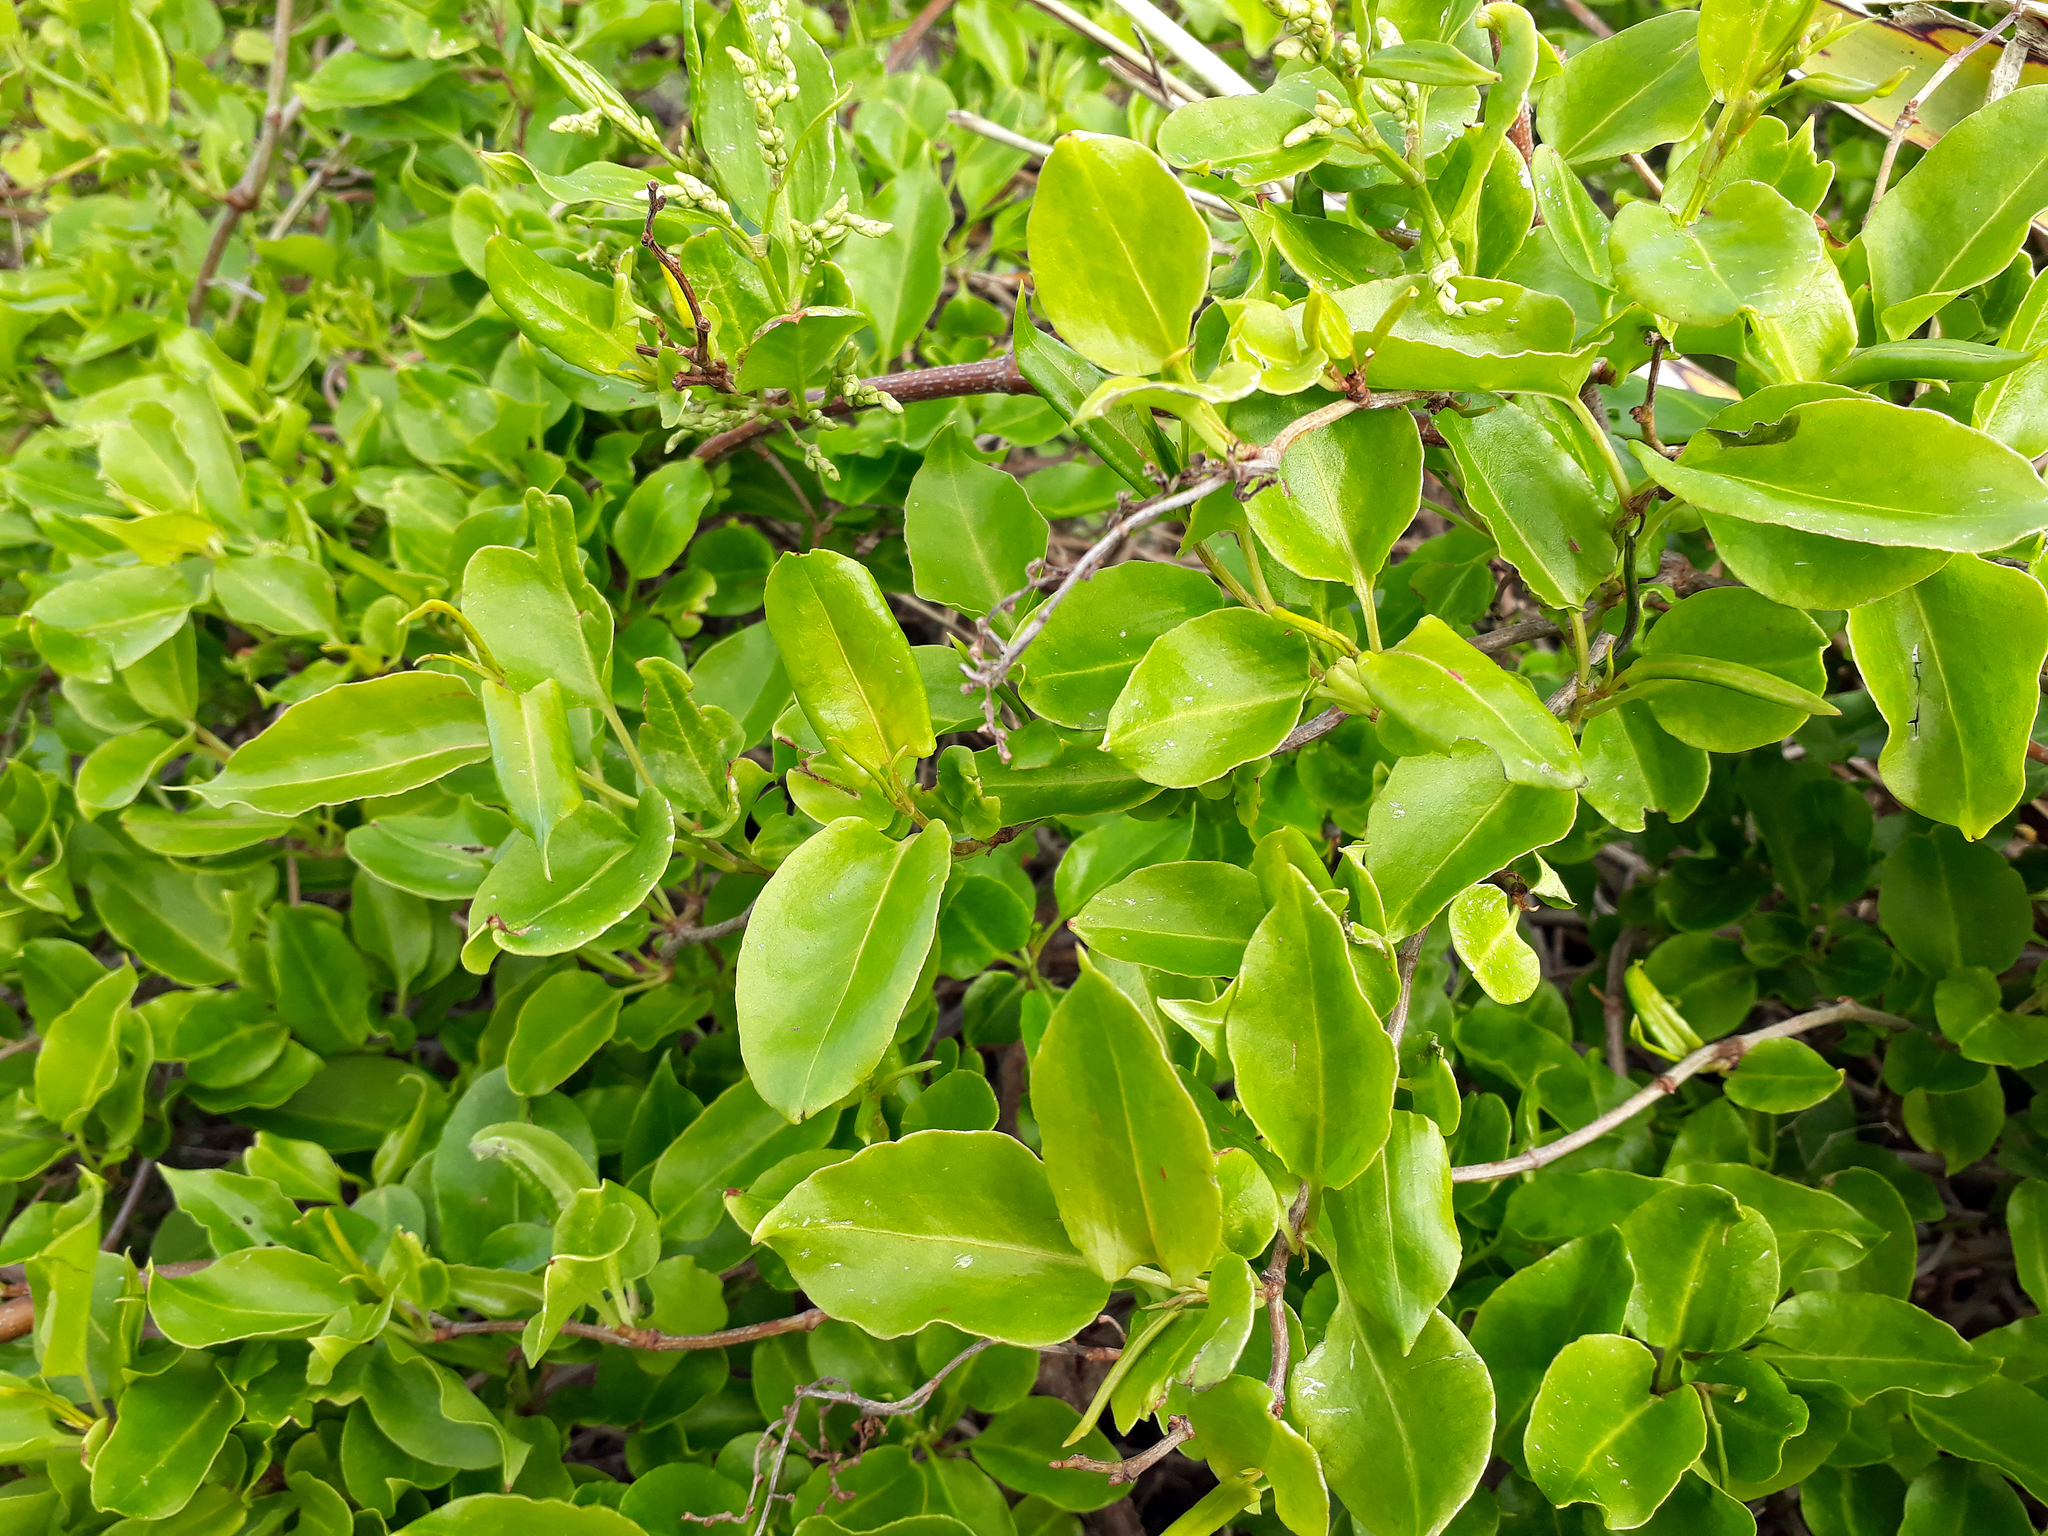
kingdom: Plantae
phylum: Tracheophyta
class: Magnoliopsida
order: Caryophyllales
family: Polygonaceae
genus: Muehlenbeckia
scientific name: Muehlenbeckia australis
